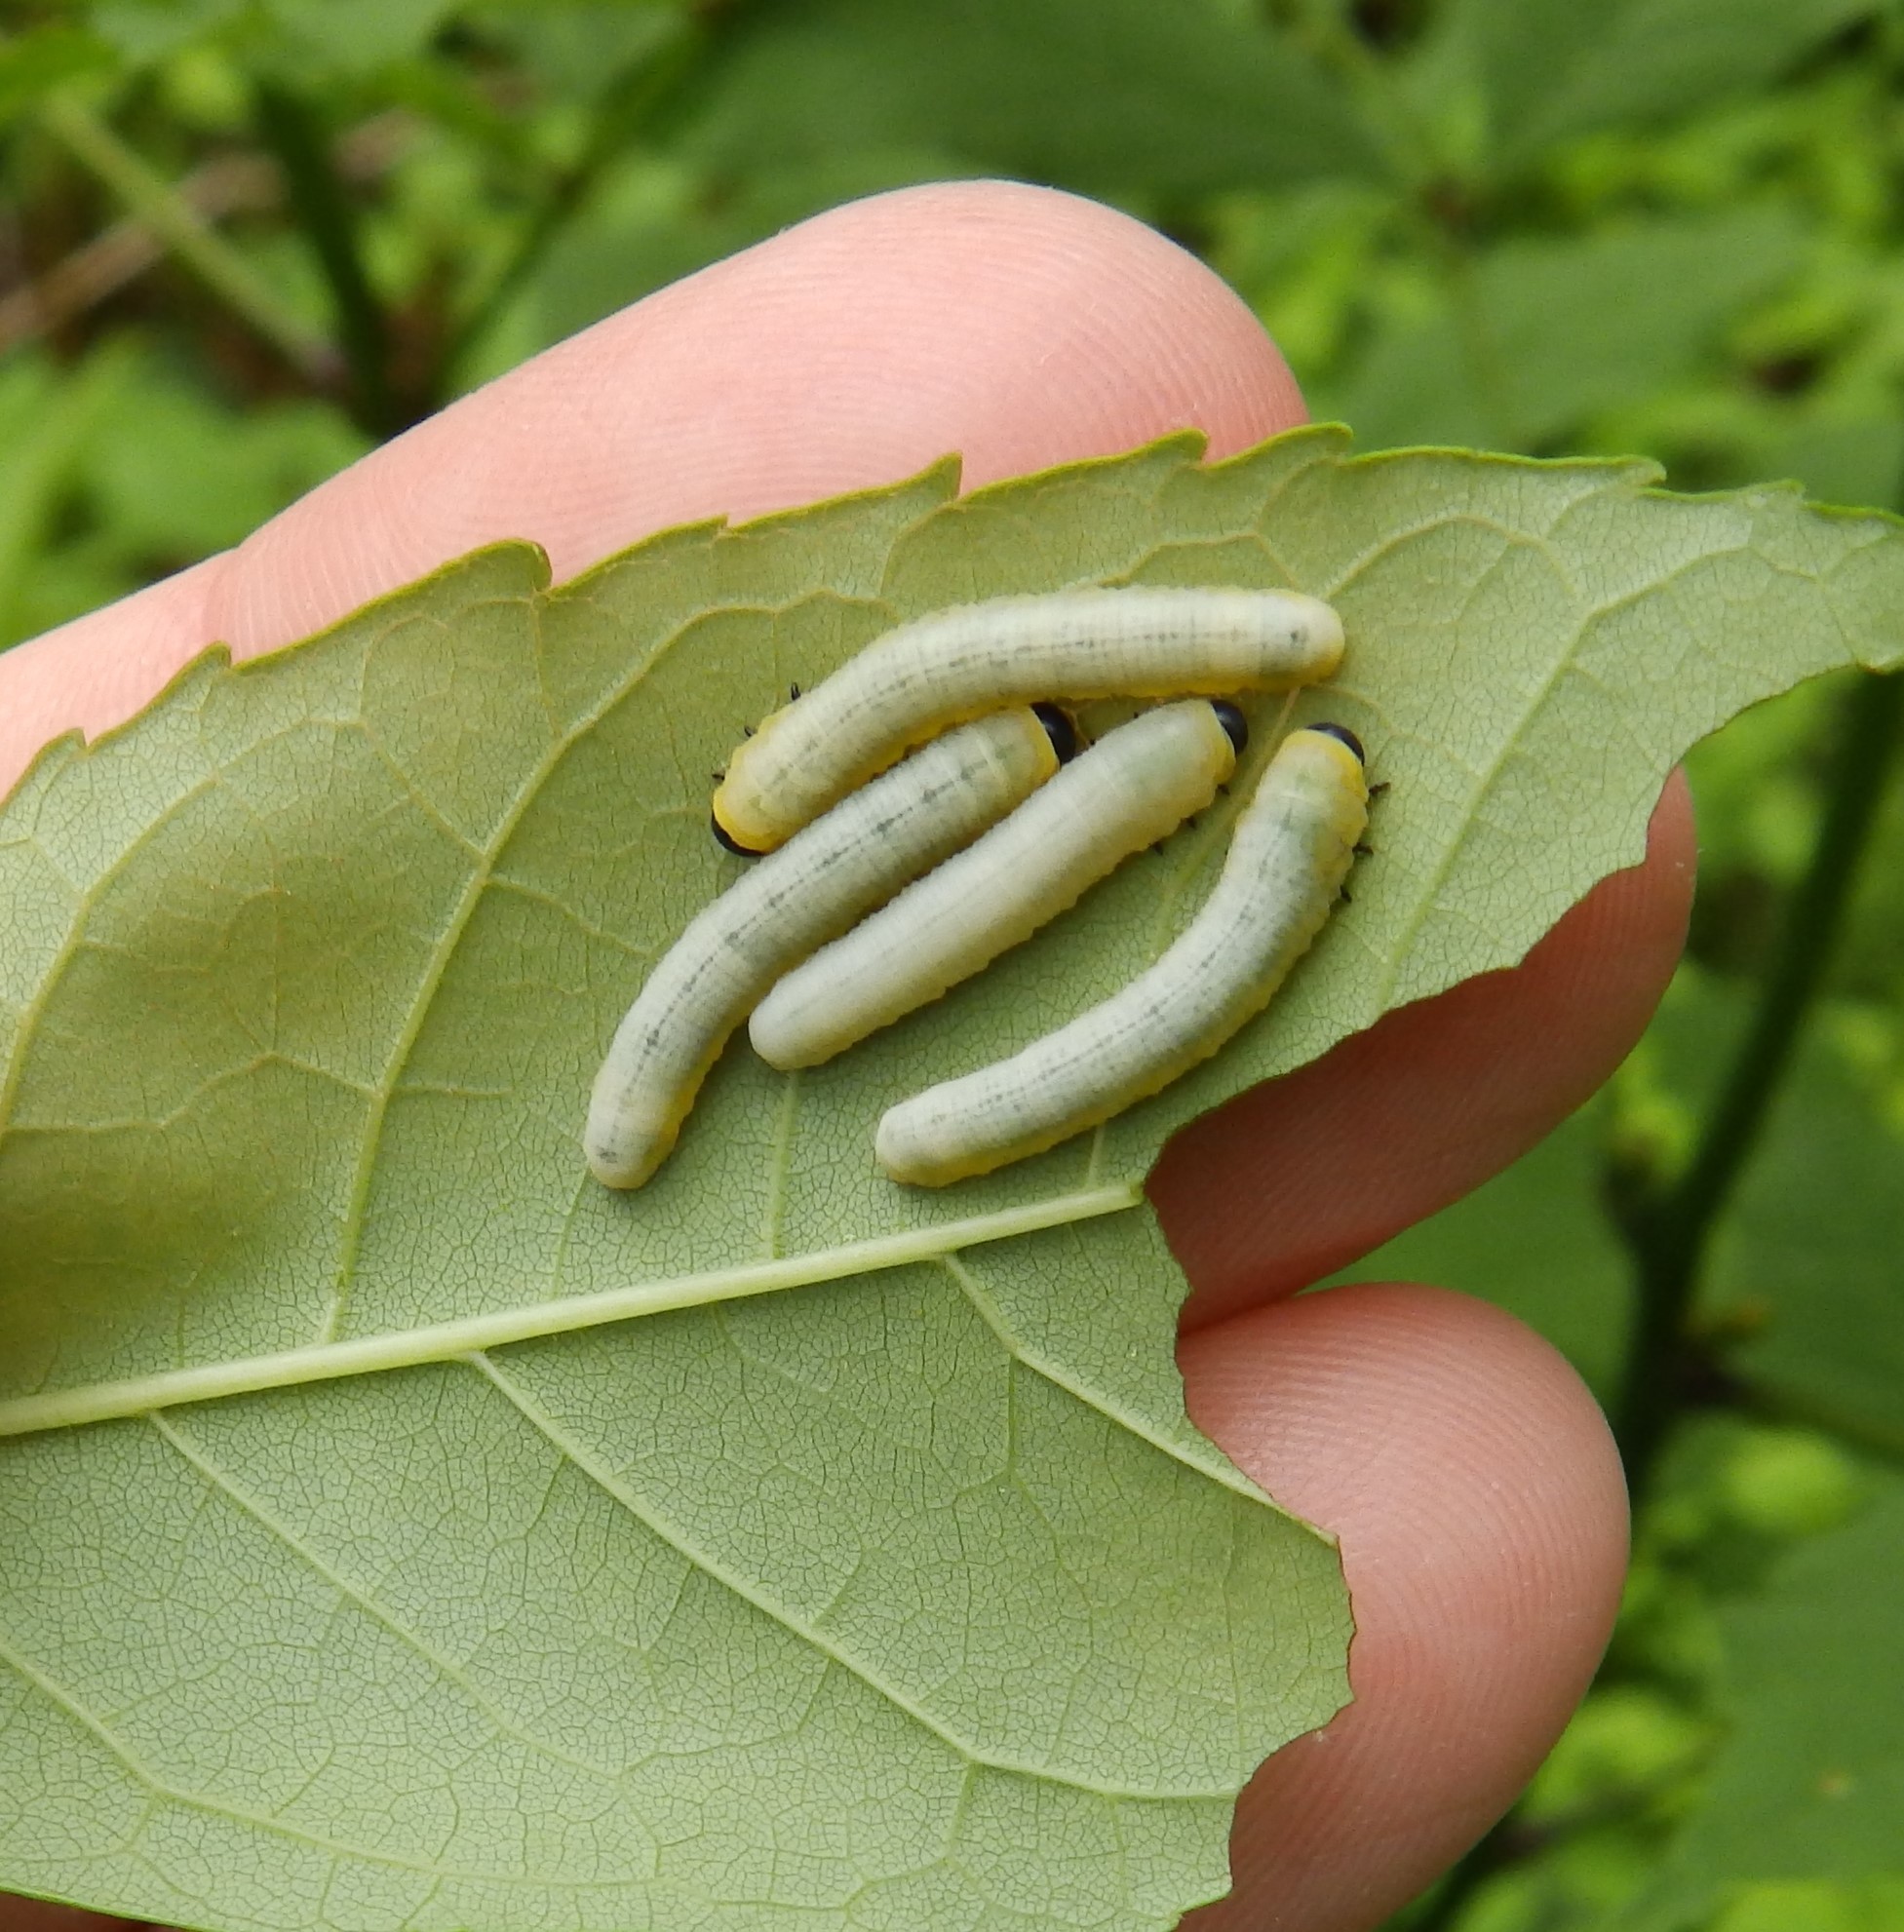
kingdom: Animalia
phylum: Arthropoda
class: Insecta
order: Hymenoptera
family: Tenthredinidae
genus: Tethida
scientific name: Tethida barda
